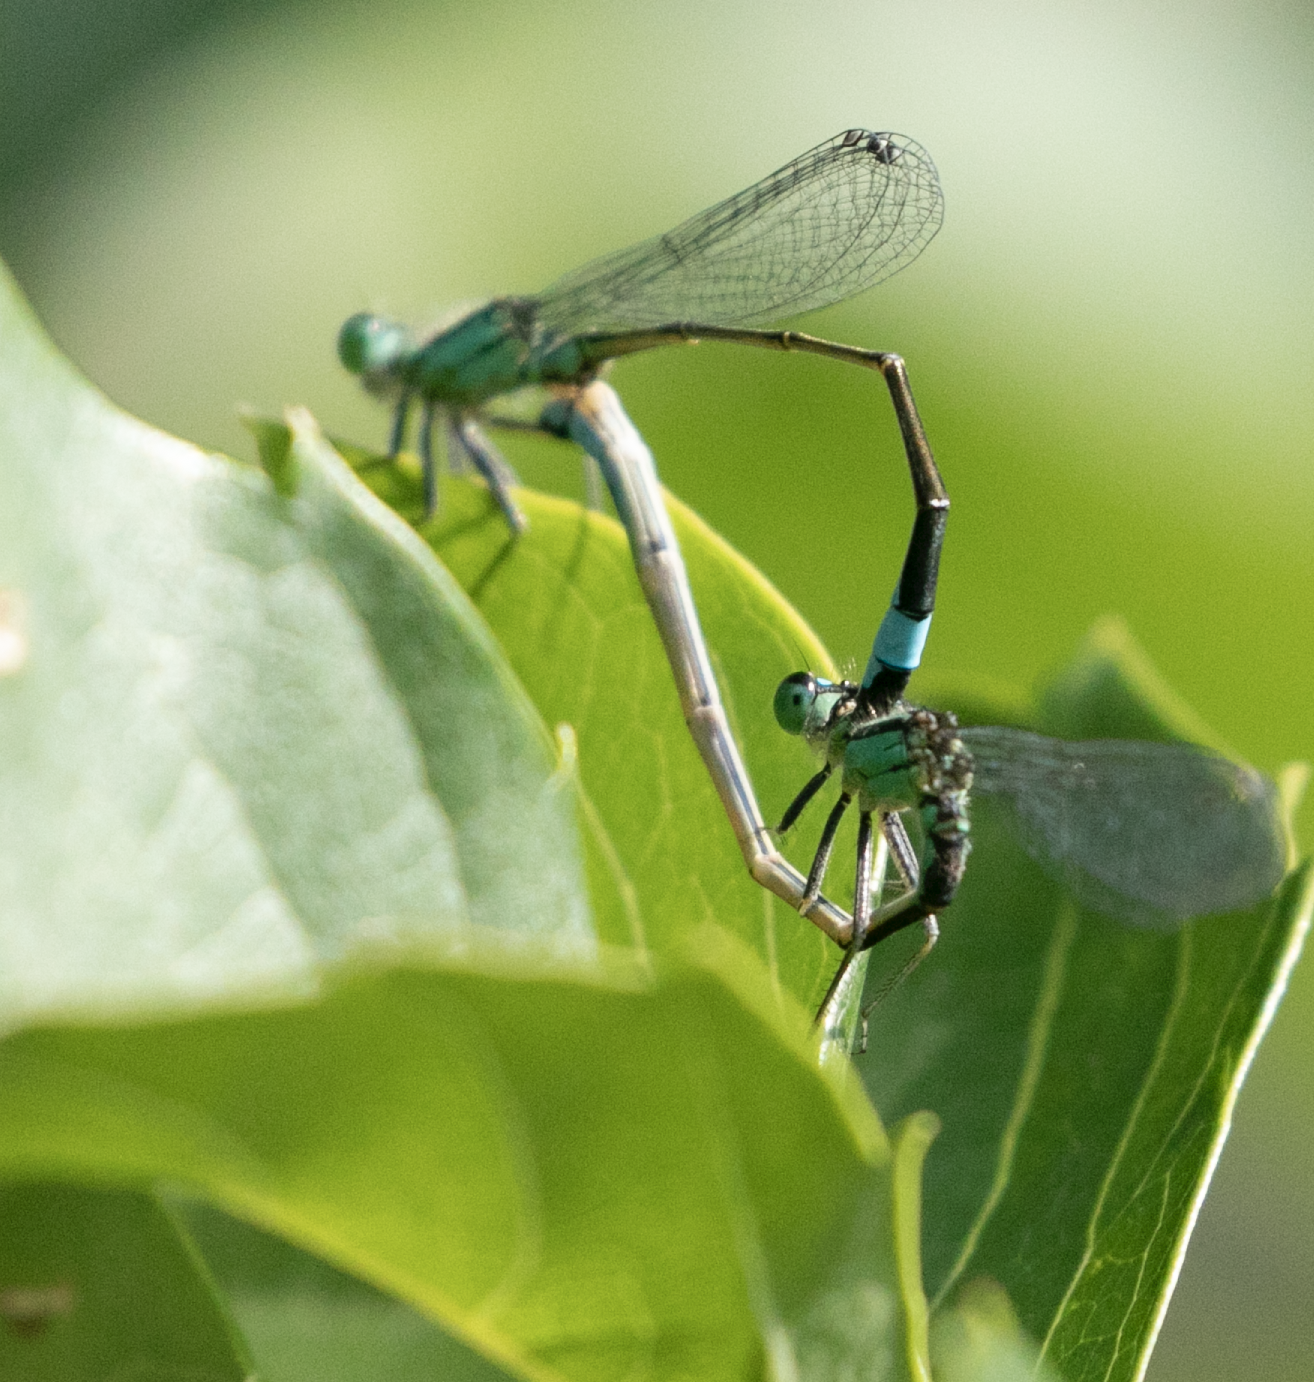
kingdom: Animalia
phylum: Arthropoda
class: Insecta
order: Odonata
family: Coenagrionidae
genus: Ischnura
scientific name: Ischnura elegans
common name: Blue-tailed damselfly
